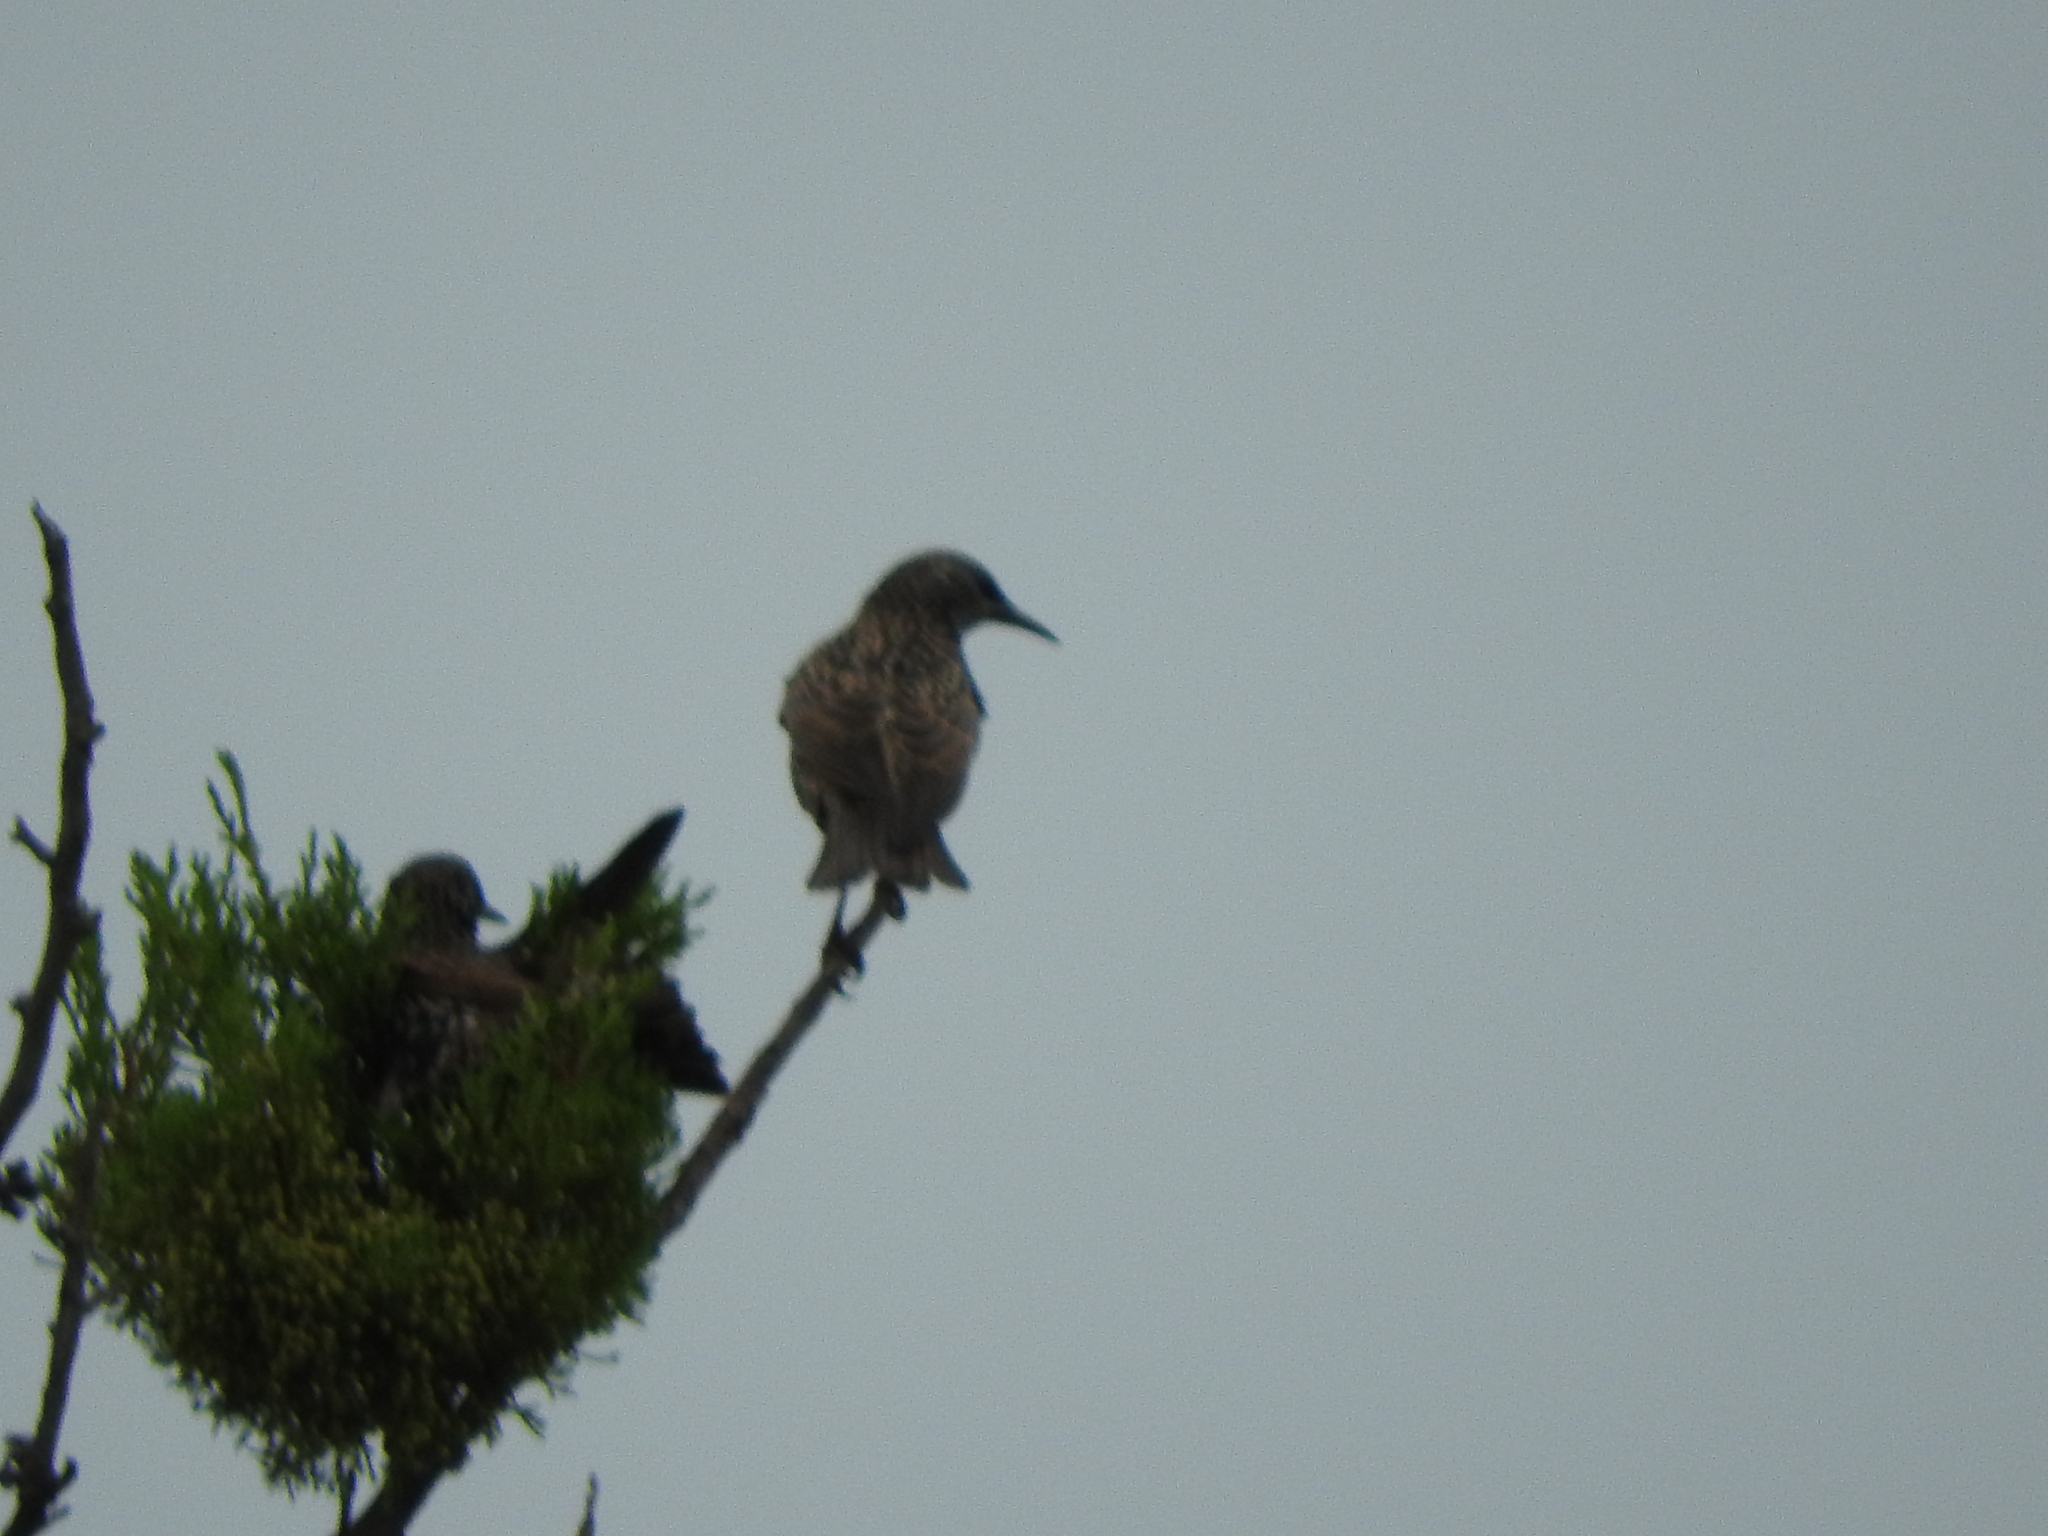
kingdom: Animalia
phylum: Chordata
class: Aves
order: Passeriformes
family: Sturnidae
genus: Sturnus
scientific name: Sturnus vulgaris
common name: Common starling
